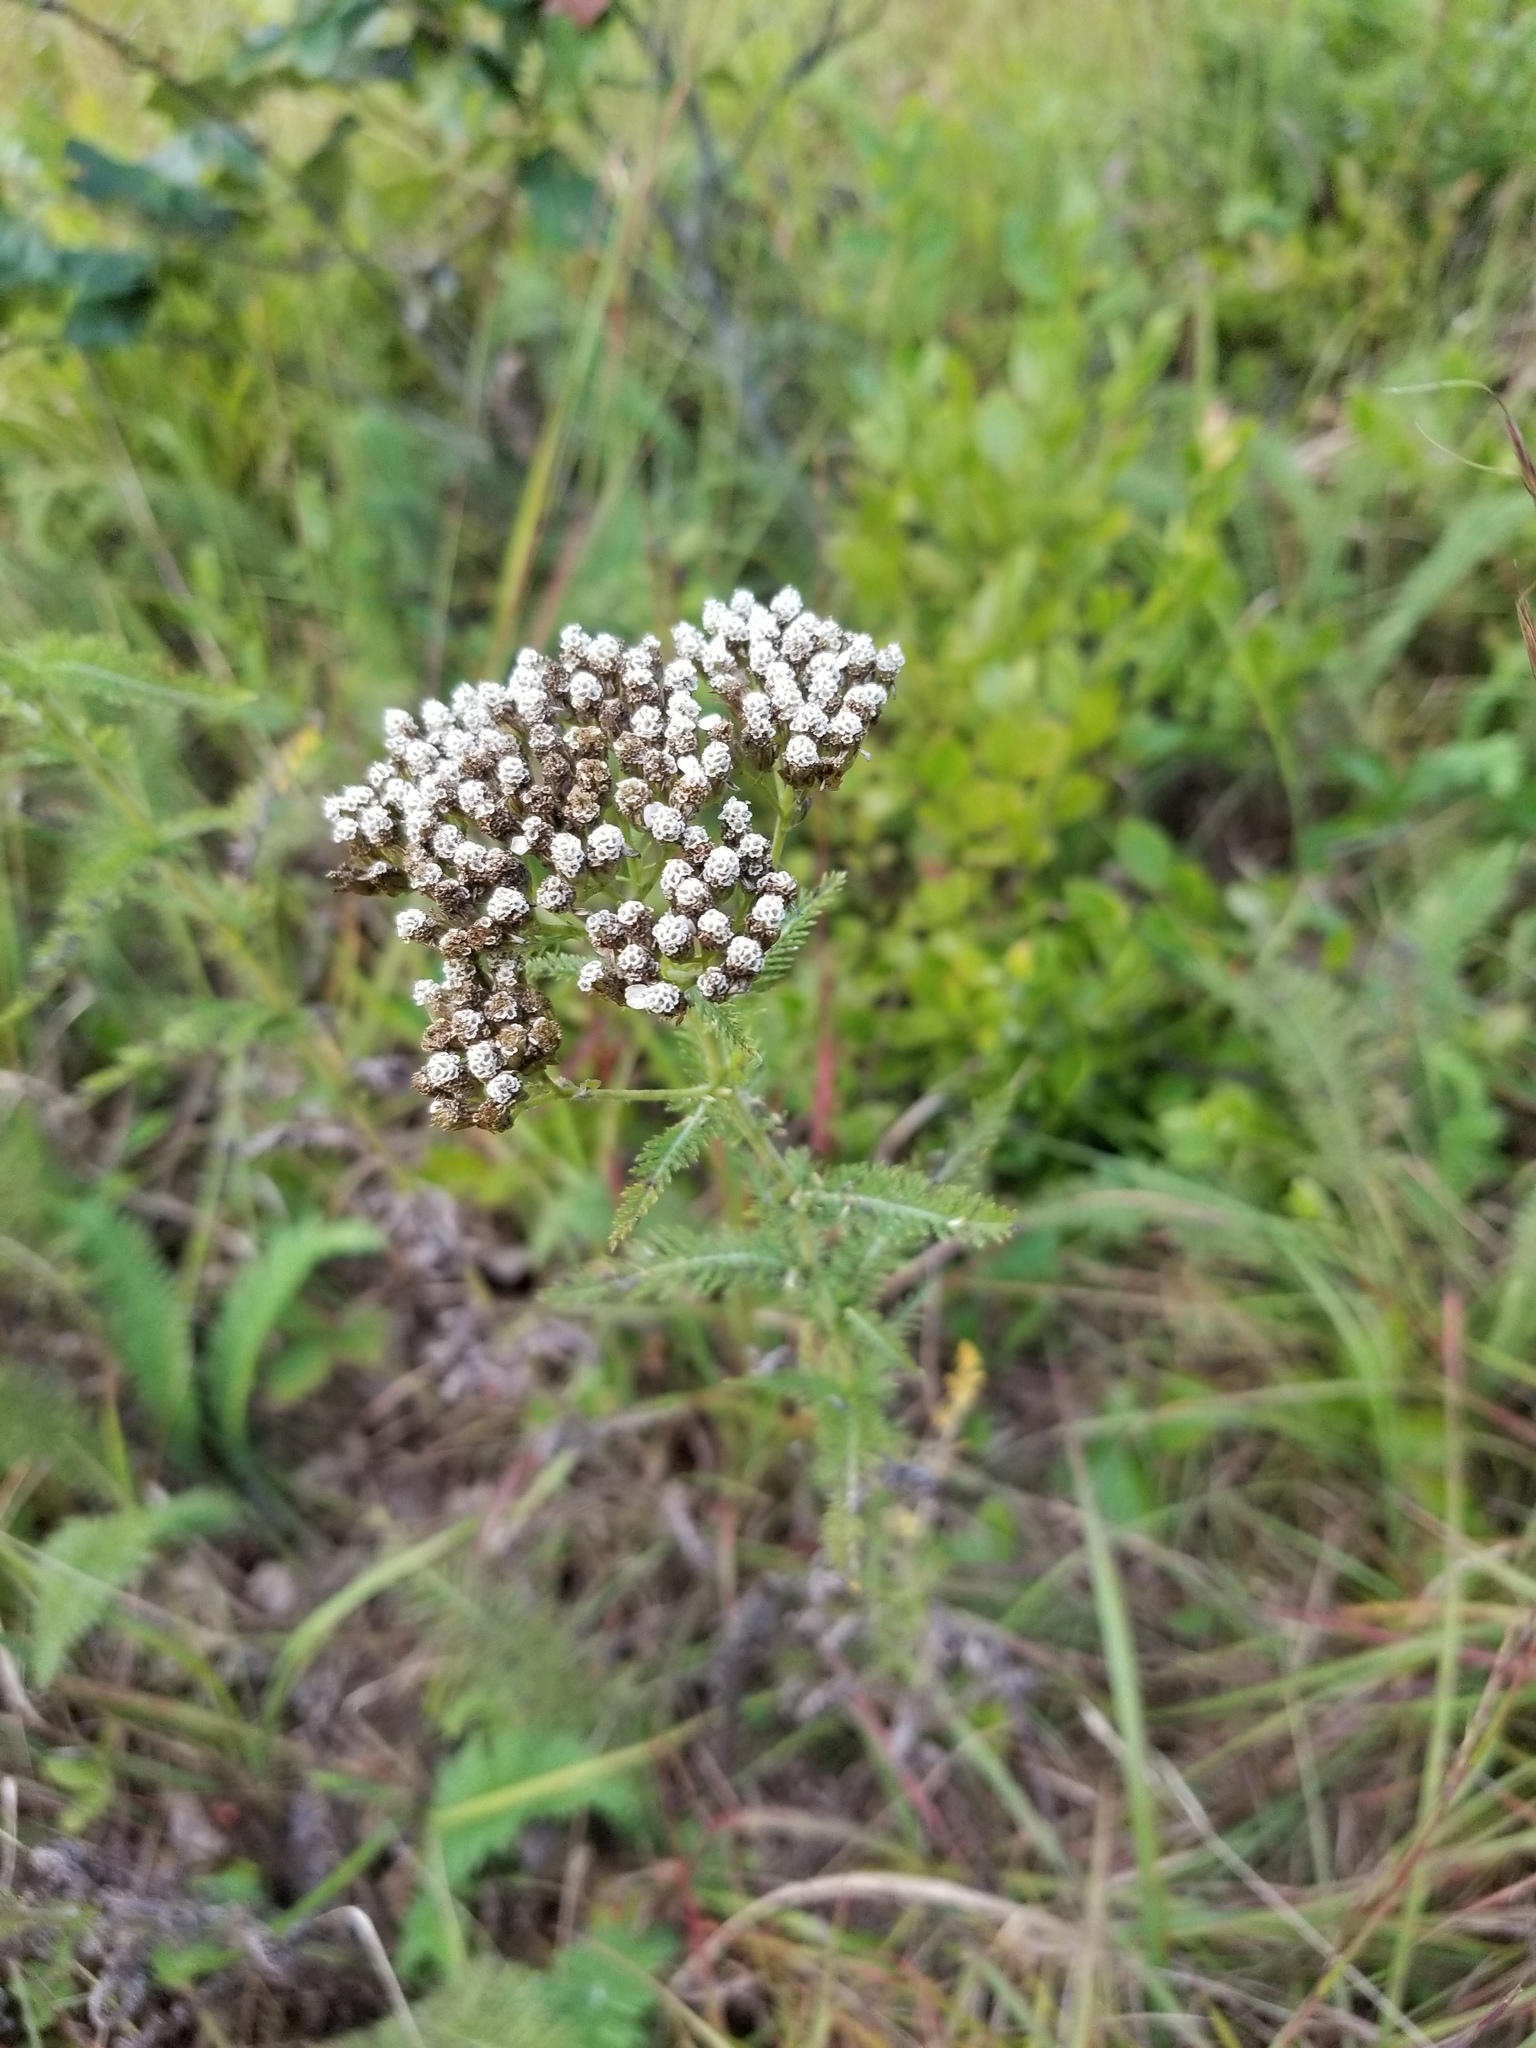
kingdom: Plantae
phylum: Tracheophyta
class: Magnoliopsida
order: Asterales
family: Asteraceae
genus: Achillea
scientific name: Achillea millefolium
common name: Yarrow
